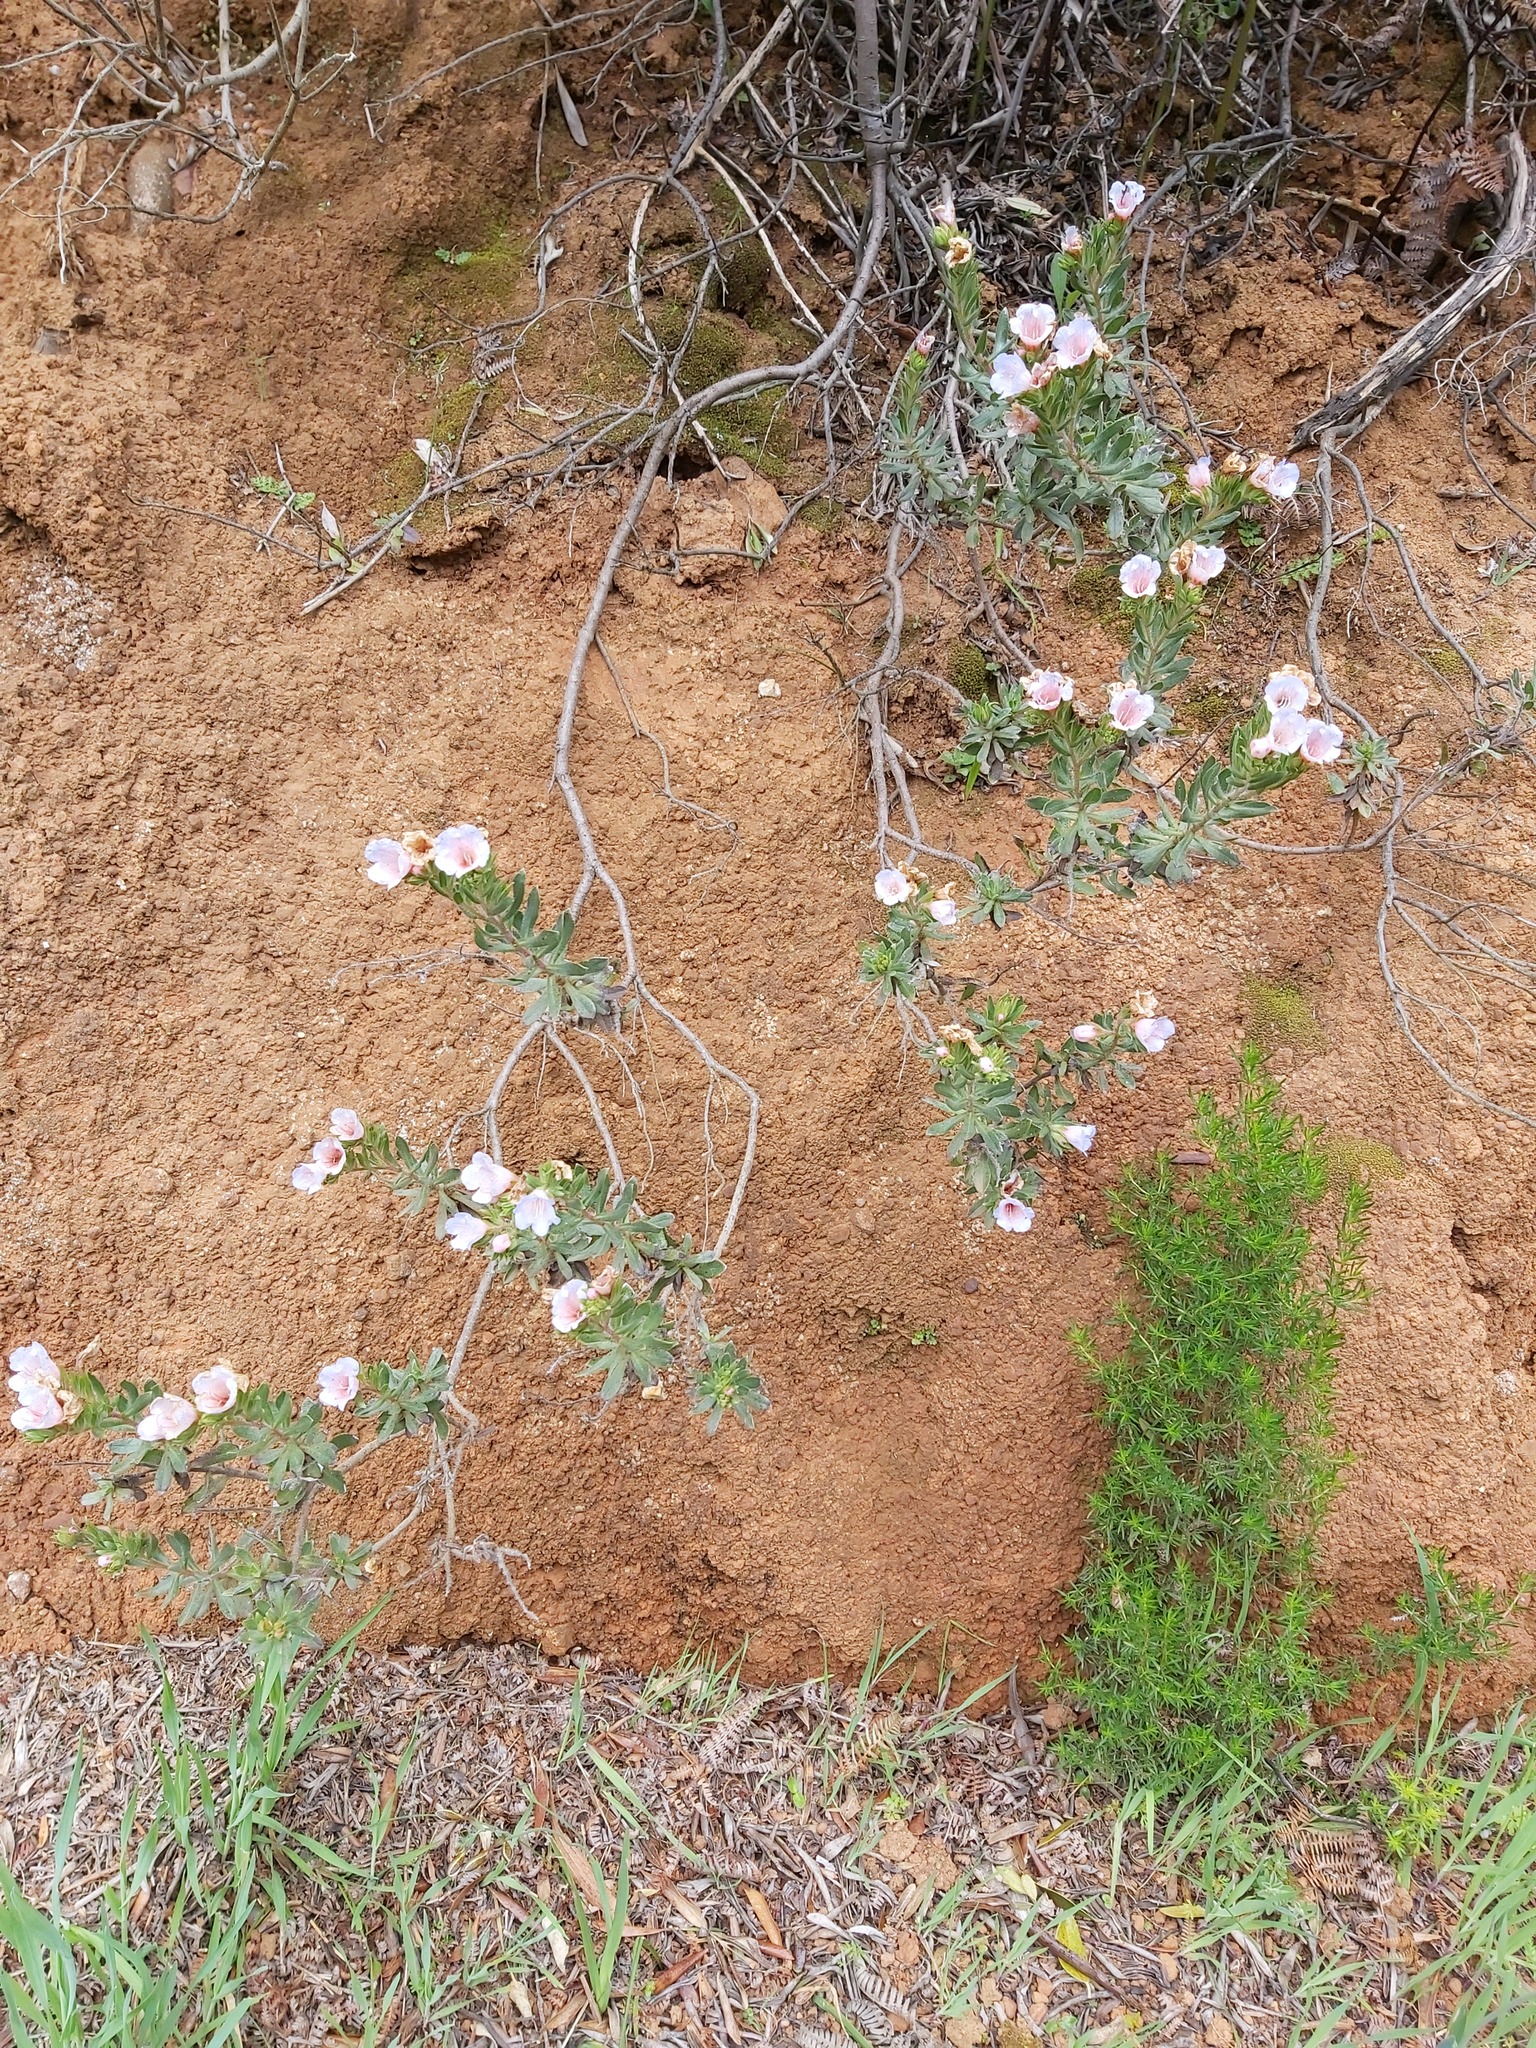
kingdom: Plantae
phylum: Tracheophyta
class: Magnoliopsida
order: Boraginales
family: Boraginaceae
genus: Lobostemon
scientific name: Lobostemon fruticosus
